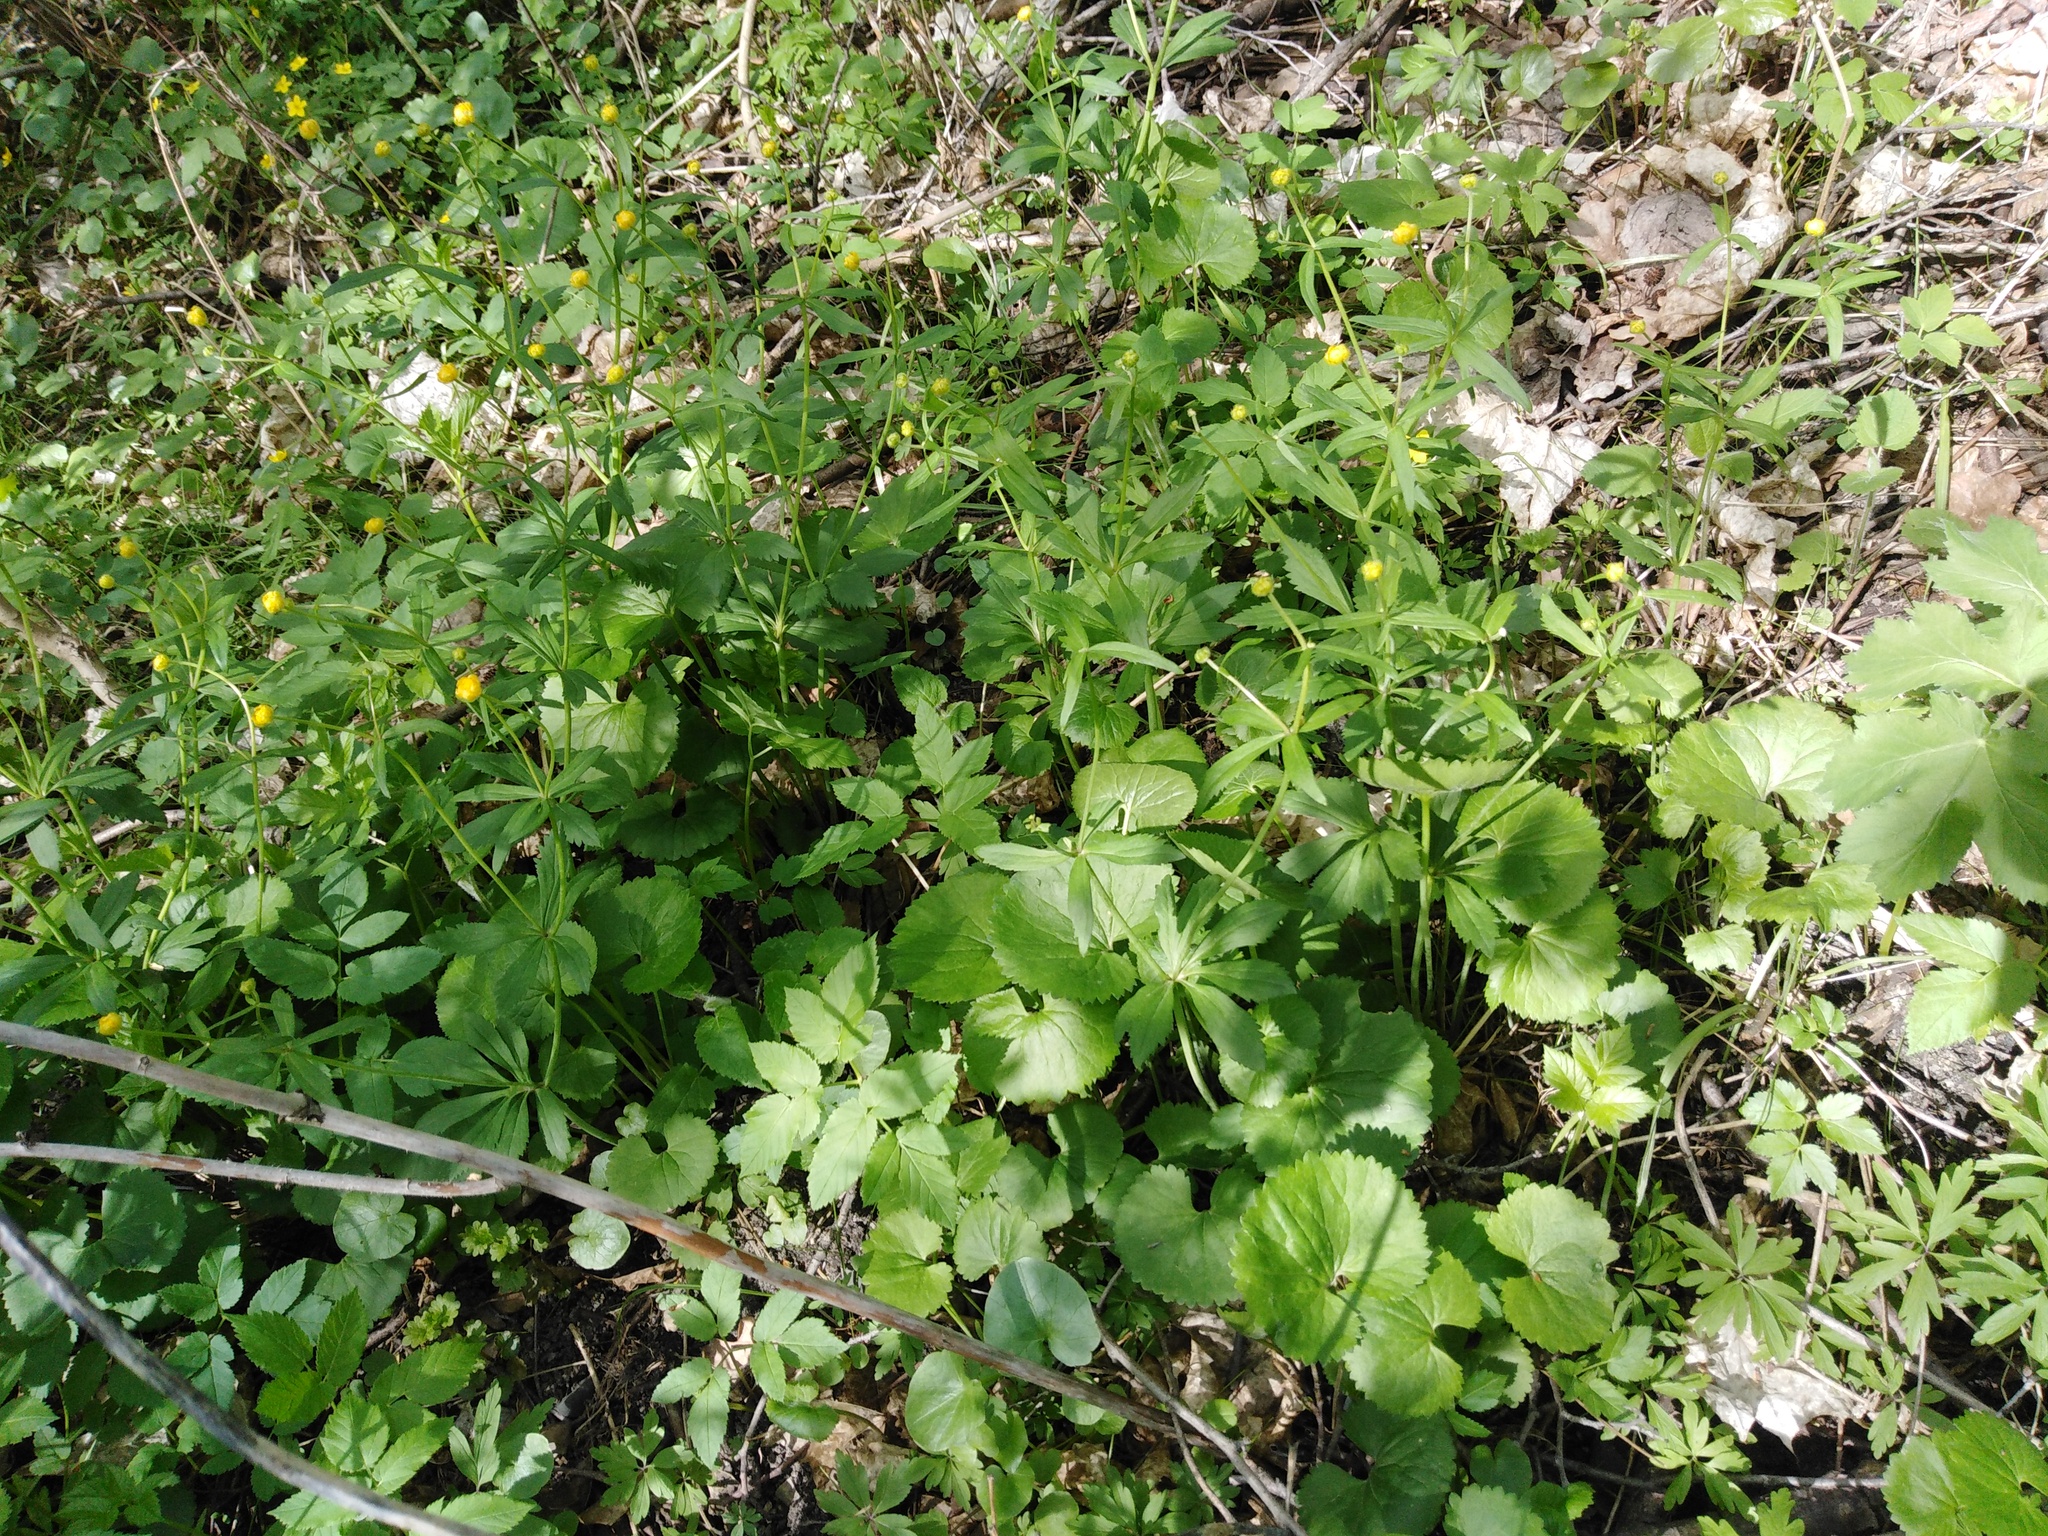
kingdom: Plantae
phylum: Tracheophyta
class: Magnoliopsida
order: Ranunculales
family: Ranunculaceae
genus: Ranunculus
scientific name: Ranunculus cassubicus
